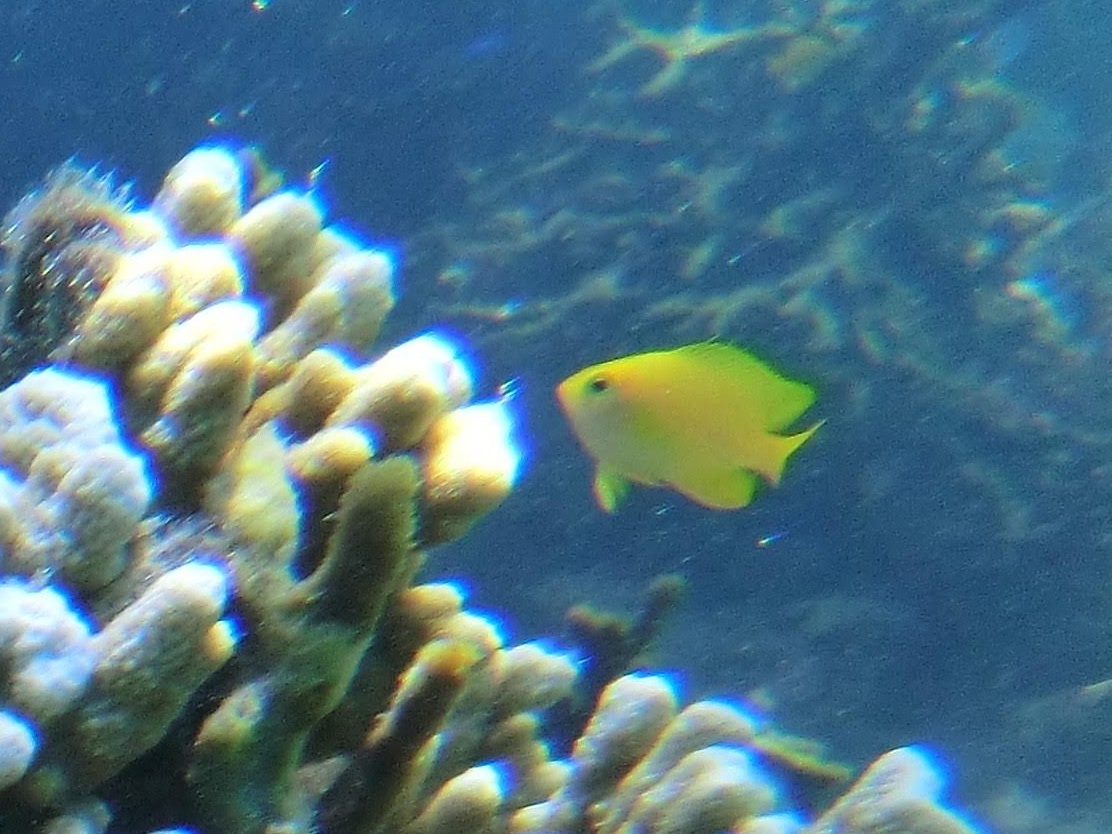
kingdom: Animalia
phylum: Chordata
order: Perciformes
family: Pomacentridae
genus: Pomacentrus
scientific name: Pomacentrus moluccensis
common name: Lemon damsel
